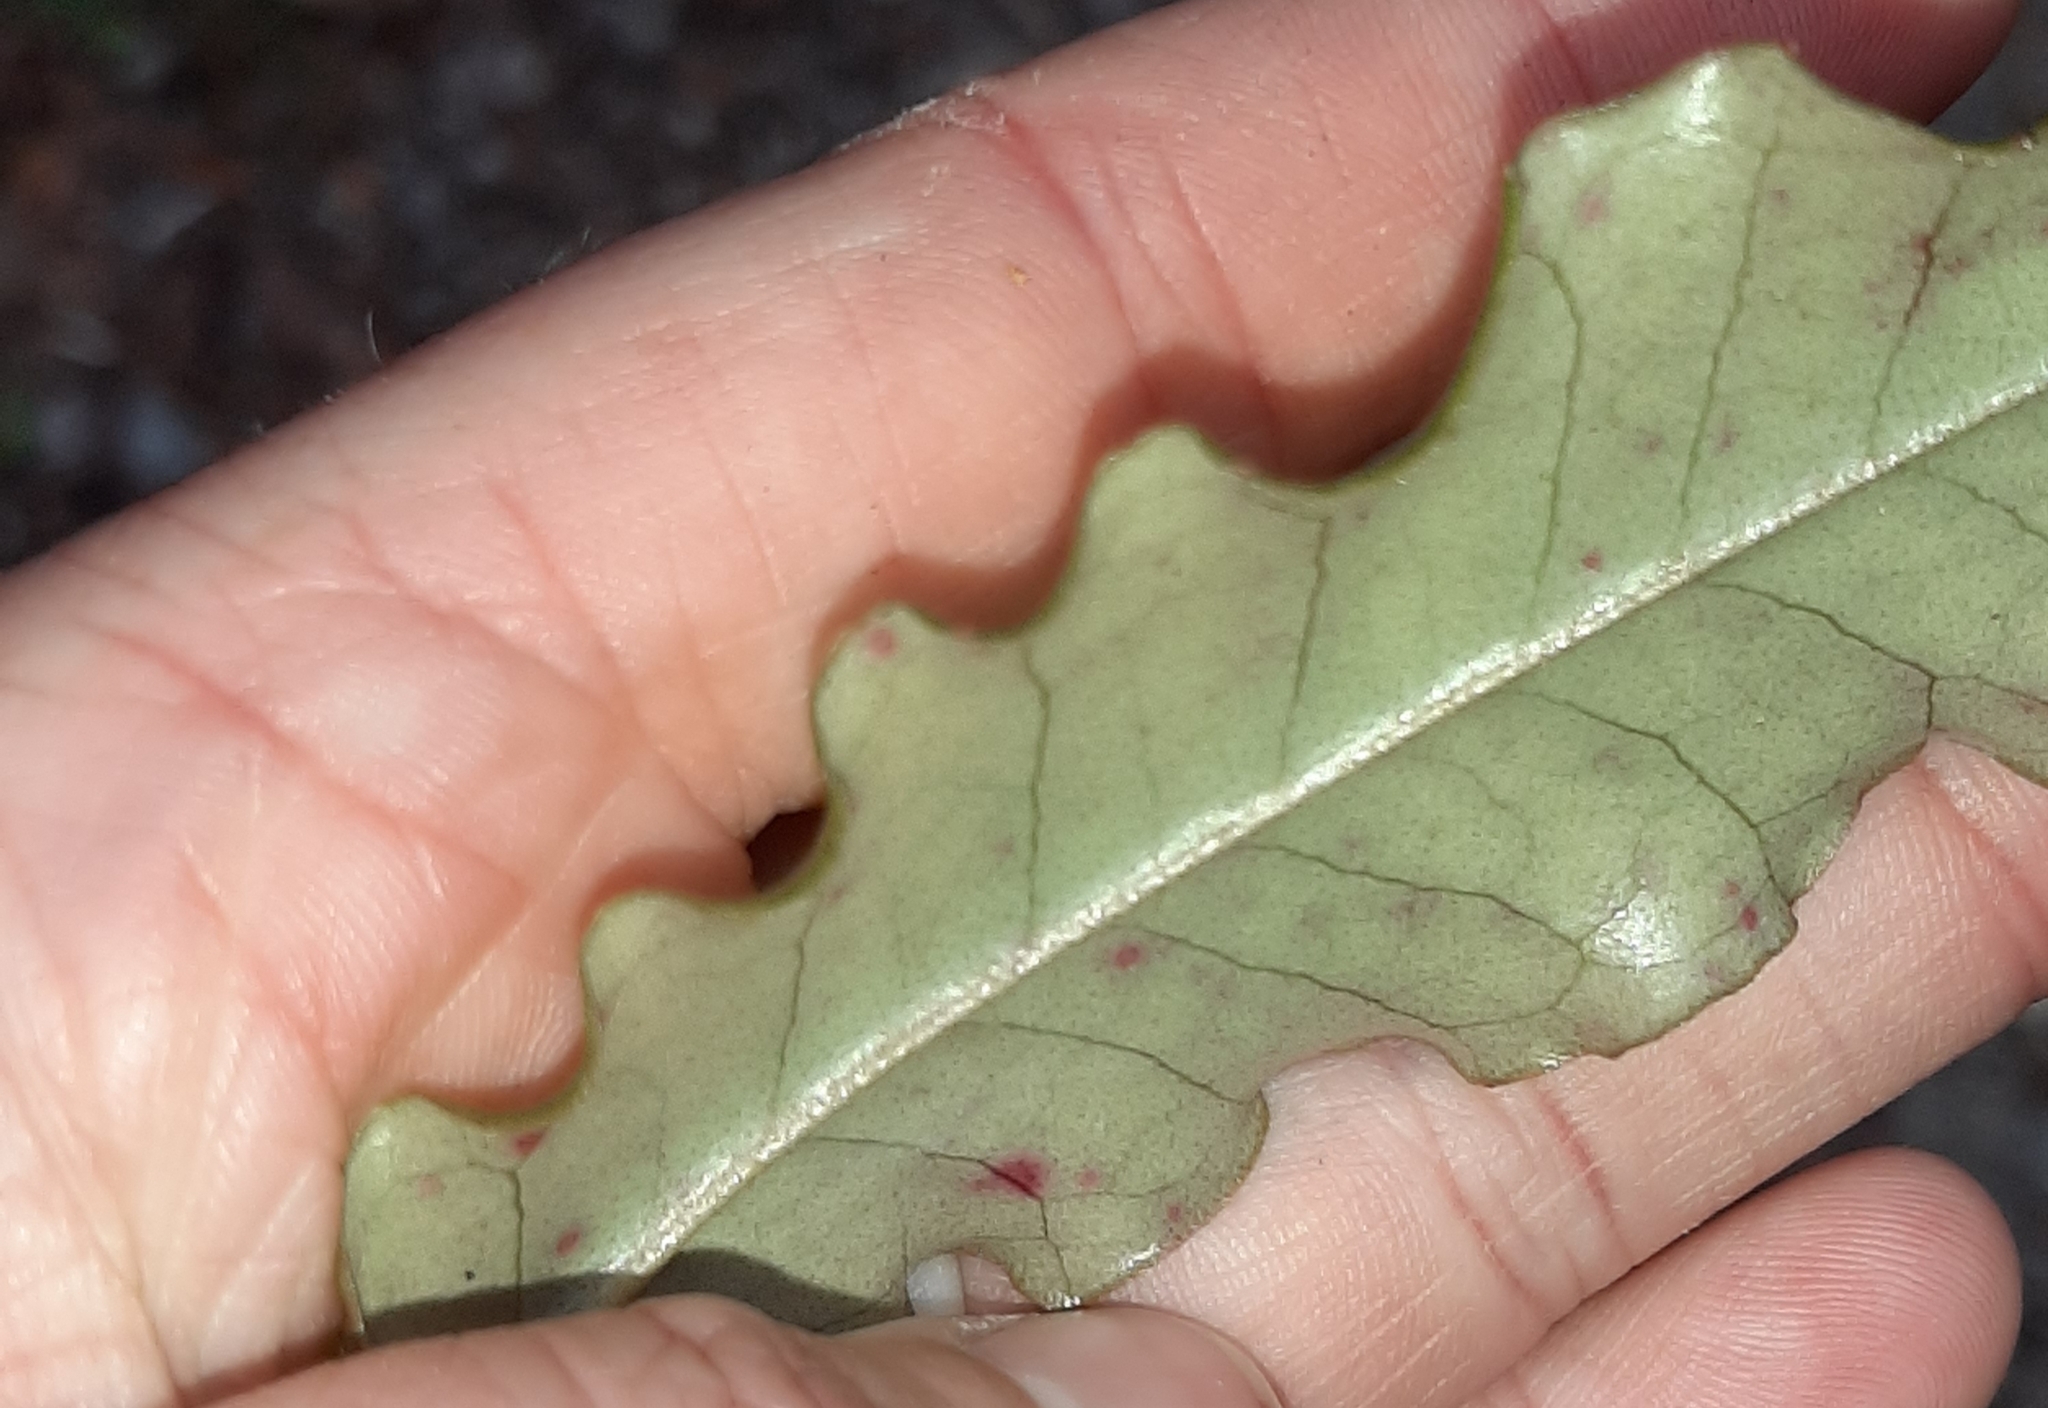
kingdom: Plantae
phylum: Tracheophyta
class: Magnoliopsida
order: Paracryphiales
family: Paracryphiaceae
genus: Quintinia
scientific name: Quintinia serrata
